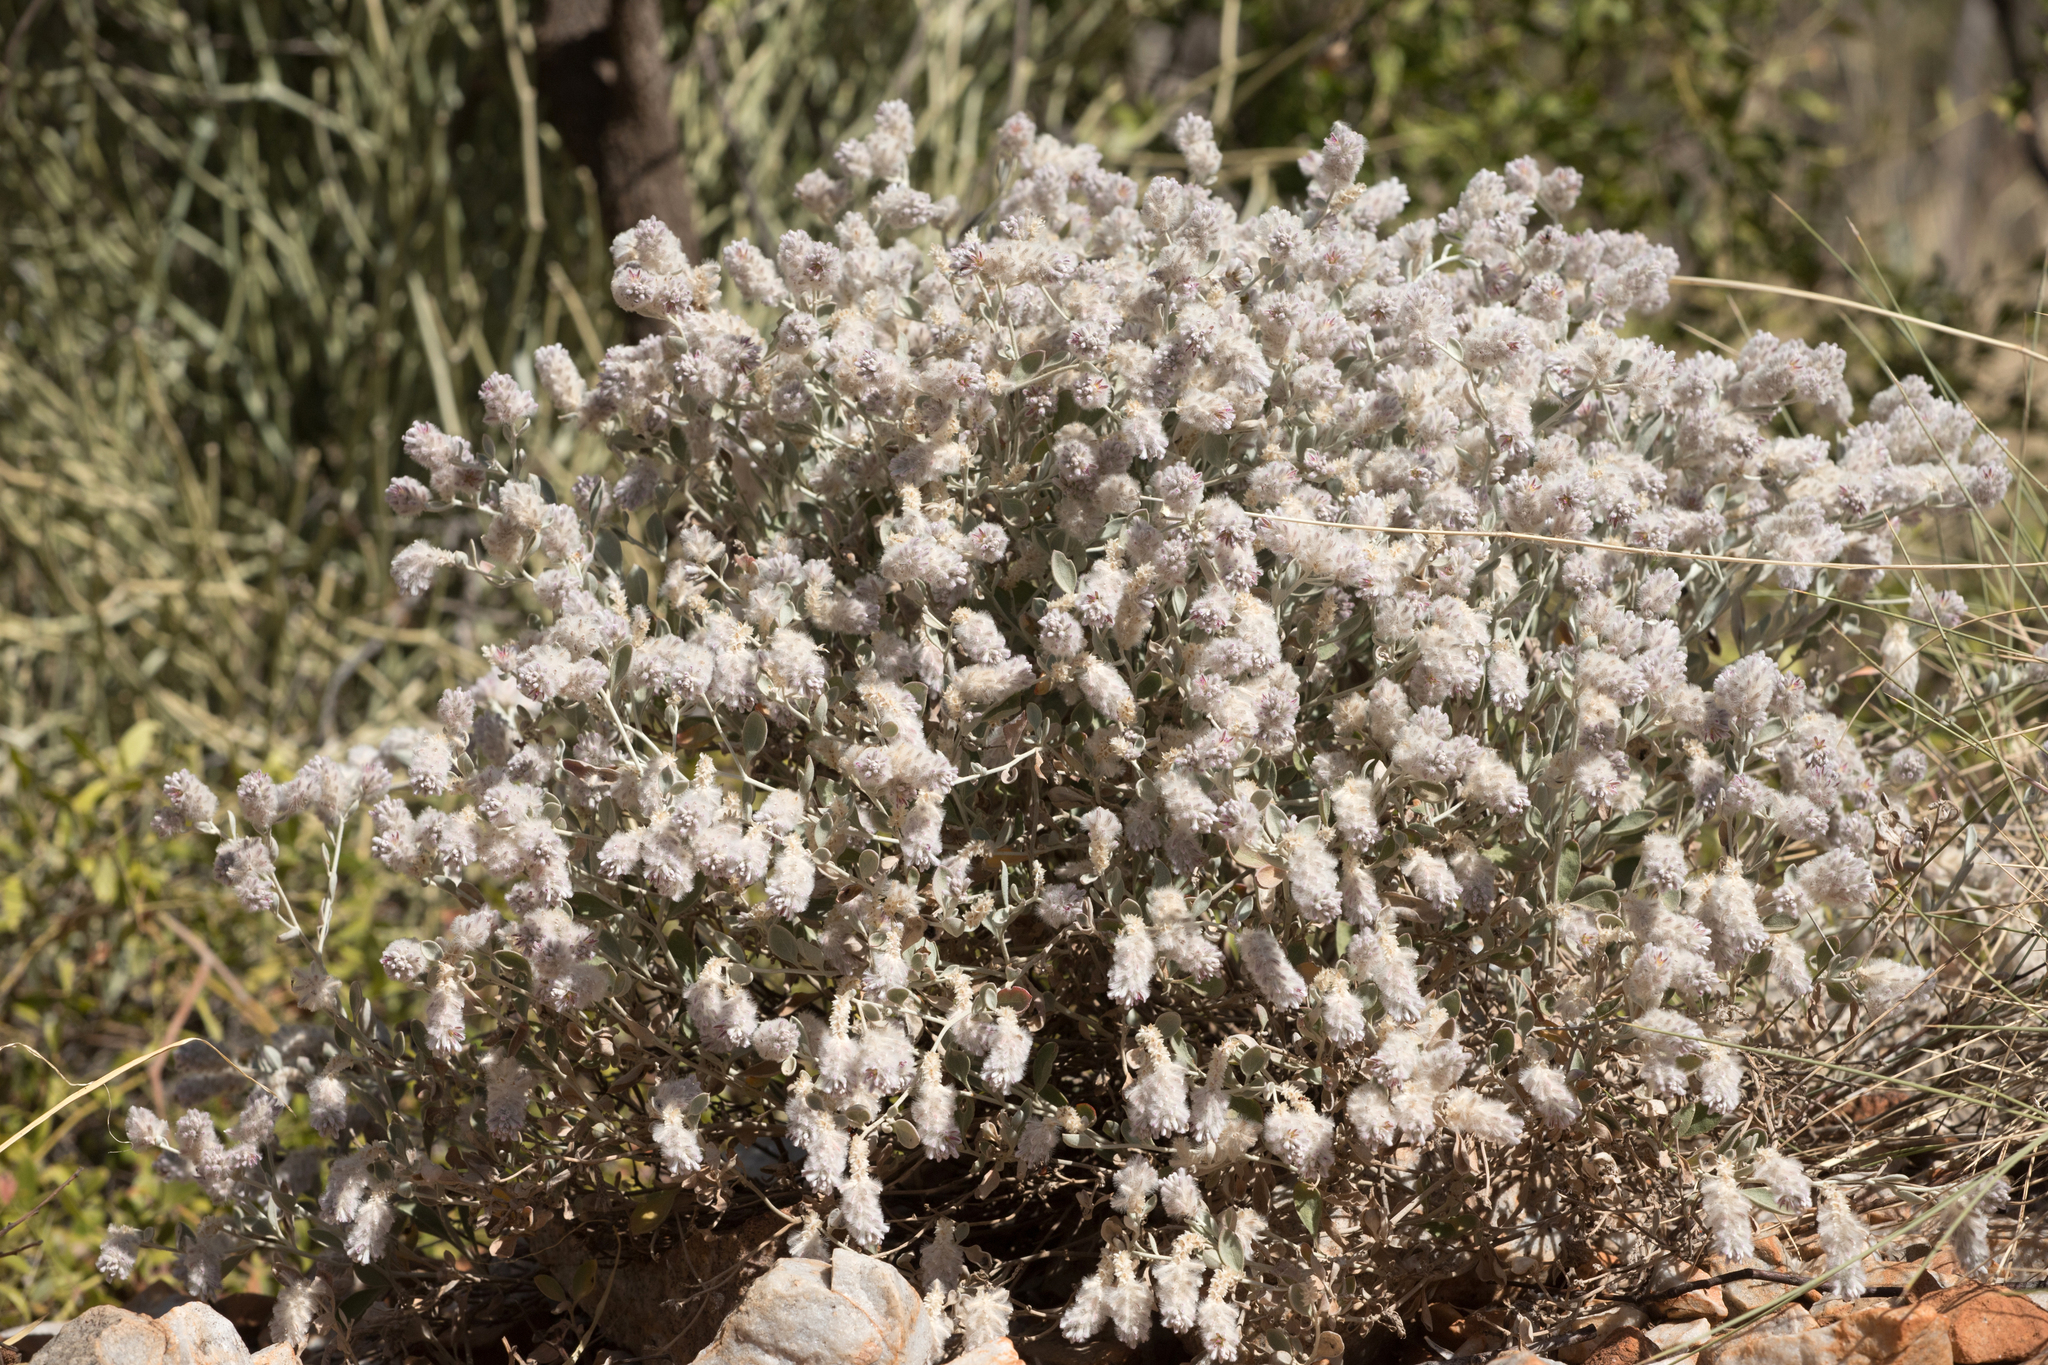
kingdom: Plantae
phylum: Tracheophyta
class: Magnoliopsida
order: Caryophyllales
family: Amaranthaceae
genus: Ptilotus
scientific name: Ptilotus parviflorus
